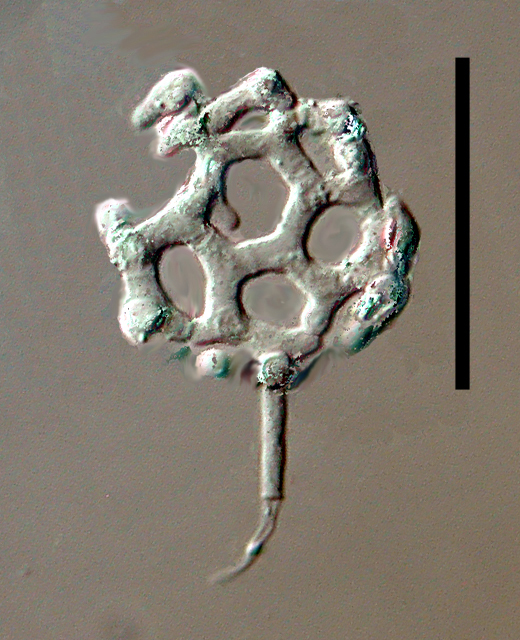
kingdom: Fungi
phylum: Ascomycota
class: Leotiomycetes
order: Helotiales
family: Hyaloscyphaceae
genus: Clathrosphaerina
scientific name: Clathrosphaerina zalewskii
